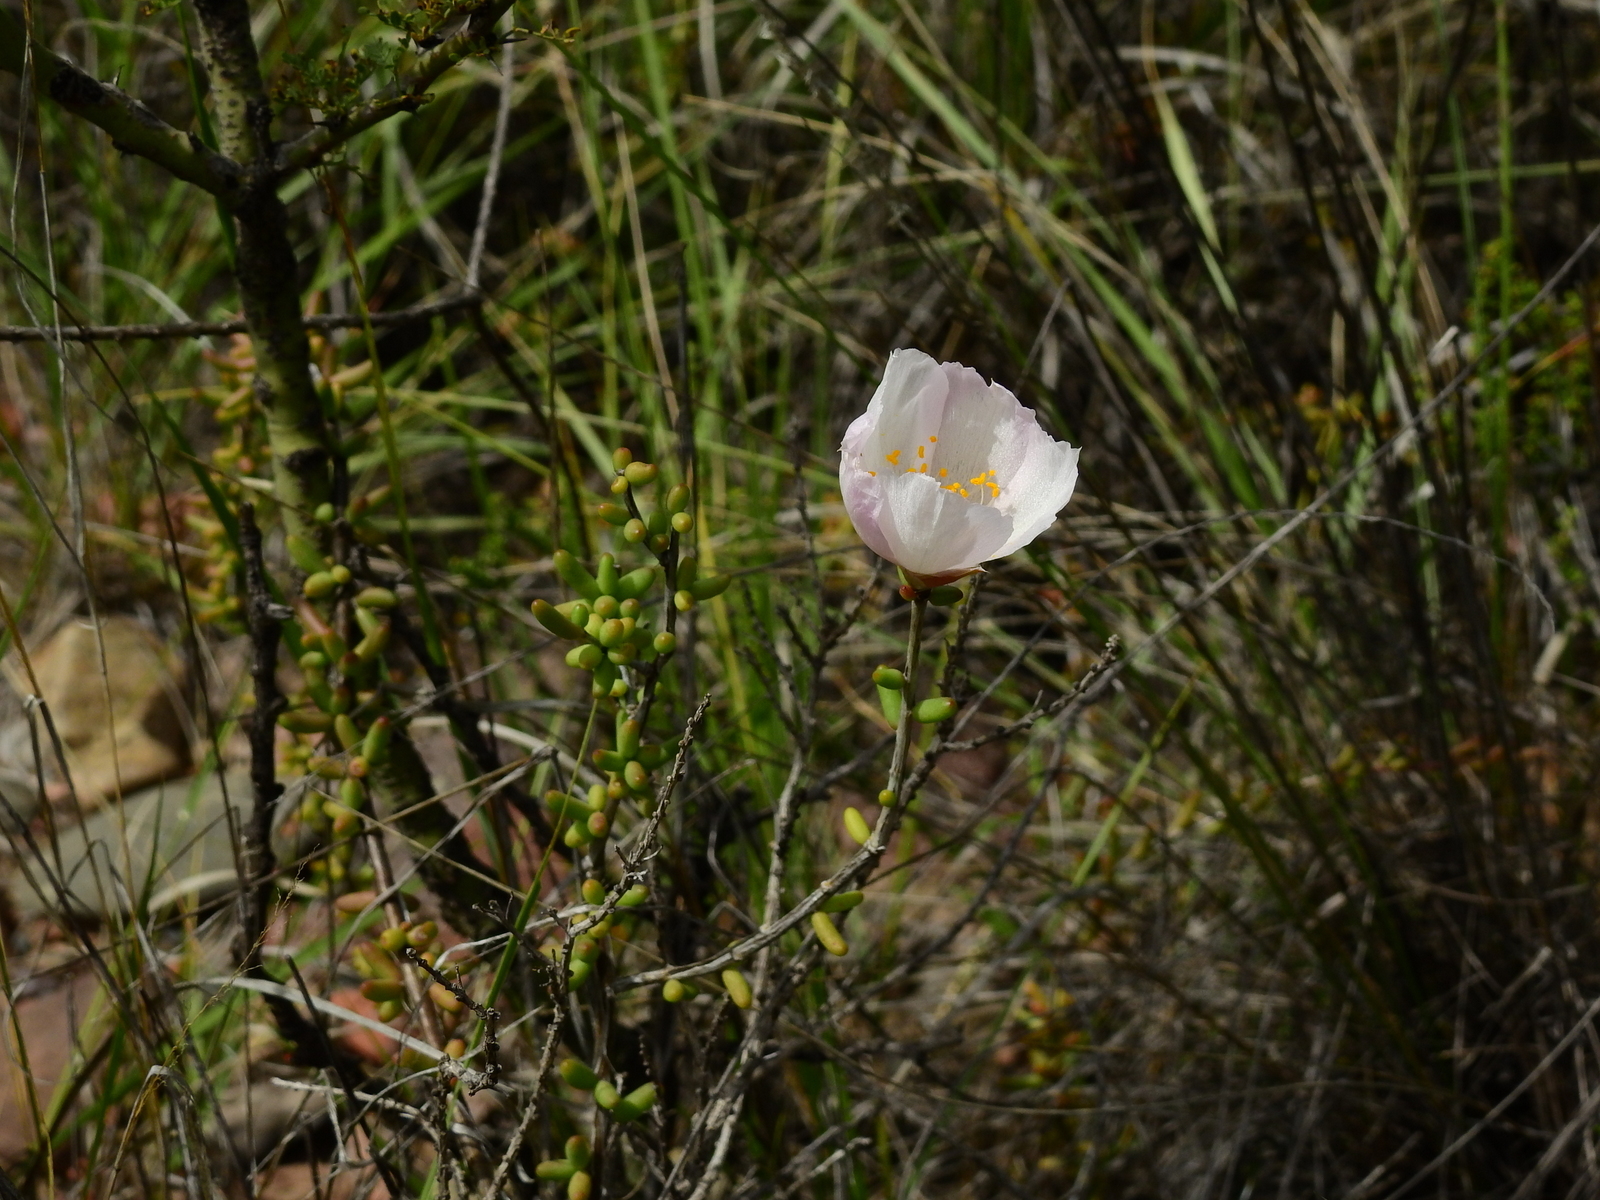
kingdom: Plantae
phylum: Tracheophyta
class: Magnoliopsida
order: Caryophyllales
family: Anacampserotaceae
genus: Grahamia
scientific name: Grahamia bracteata
